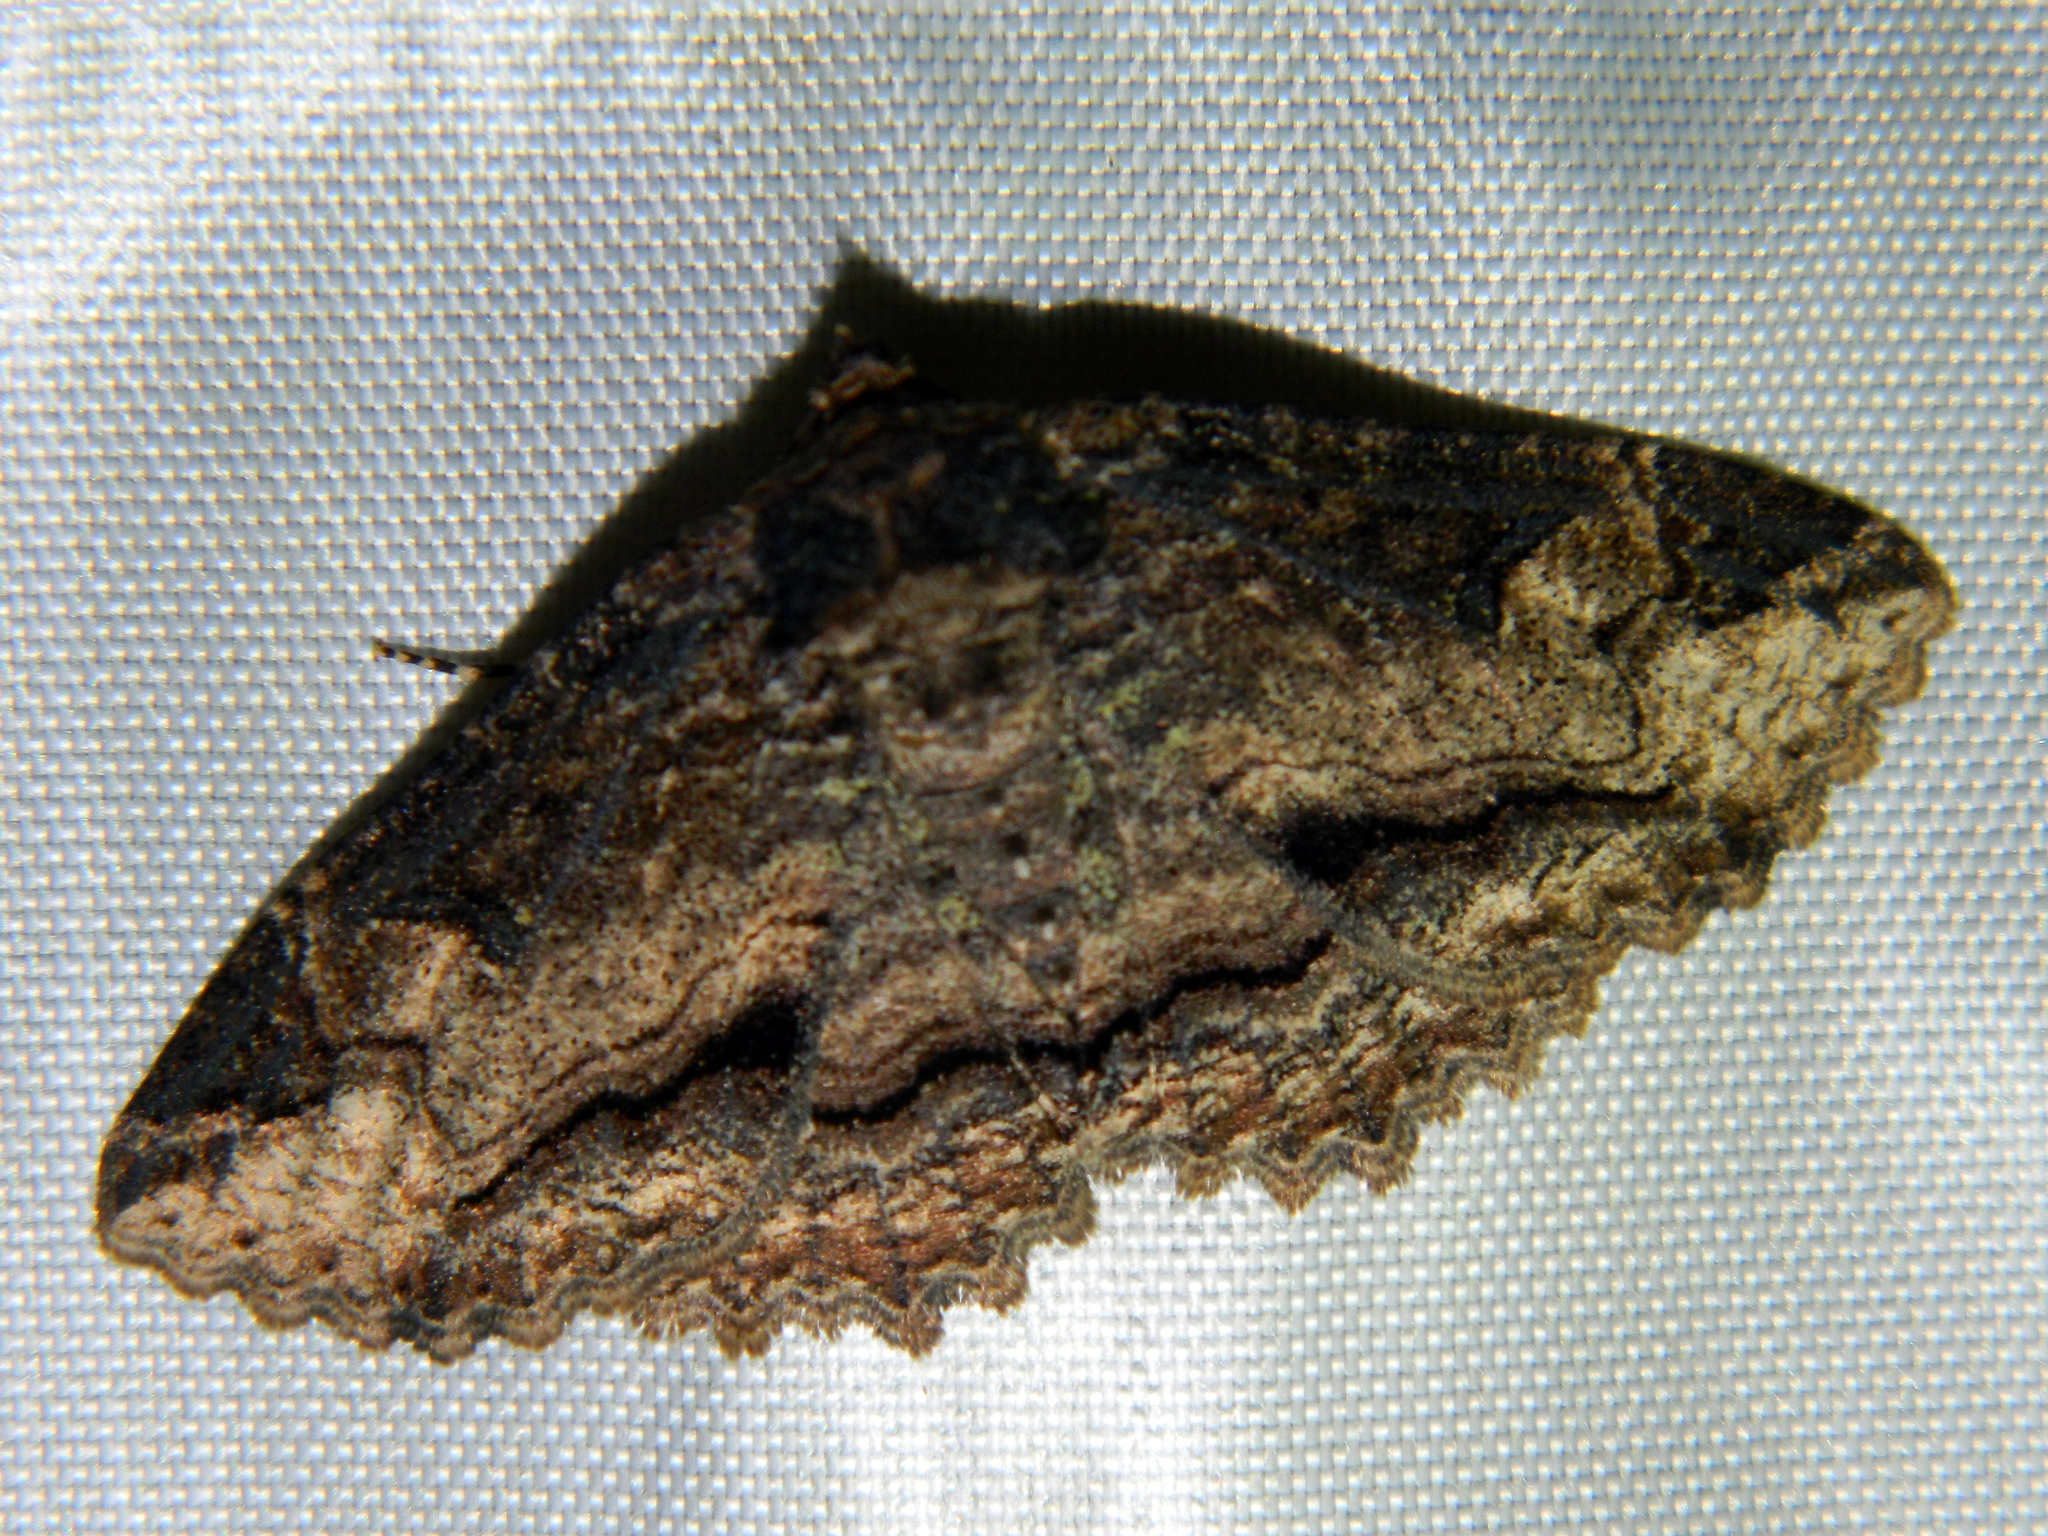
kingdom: Animalia
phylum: Arthropoda
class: Insecta
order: Lepidoptera
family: Erebidae
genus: Zale
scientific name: Zale minerea
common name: Colorful zale moth
